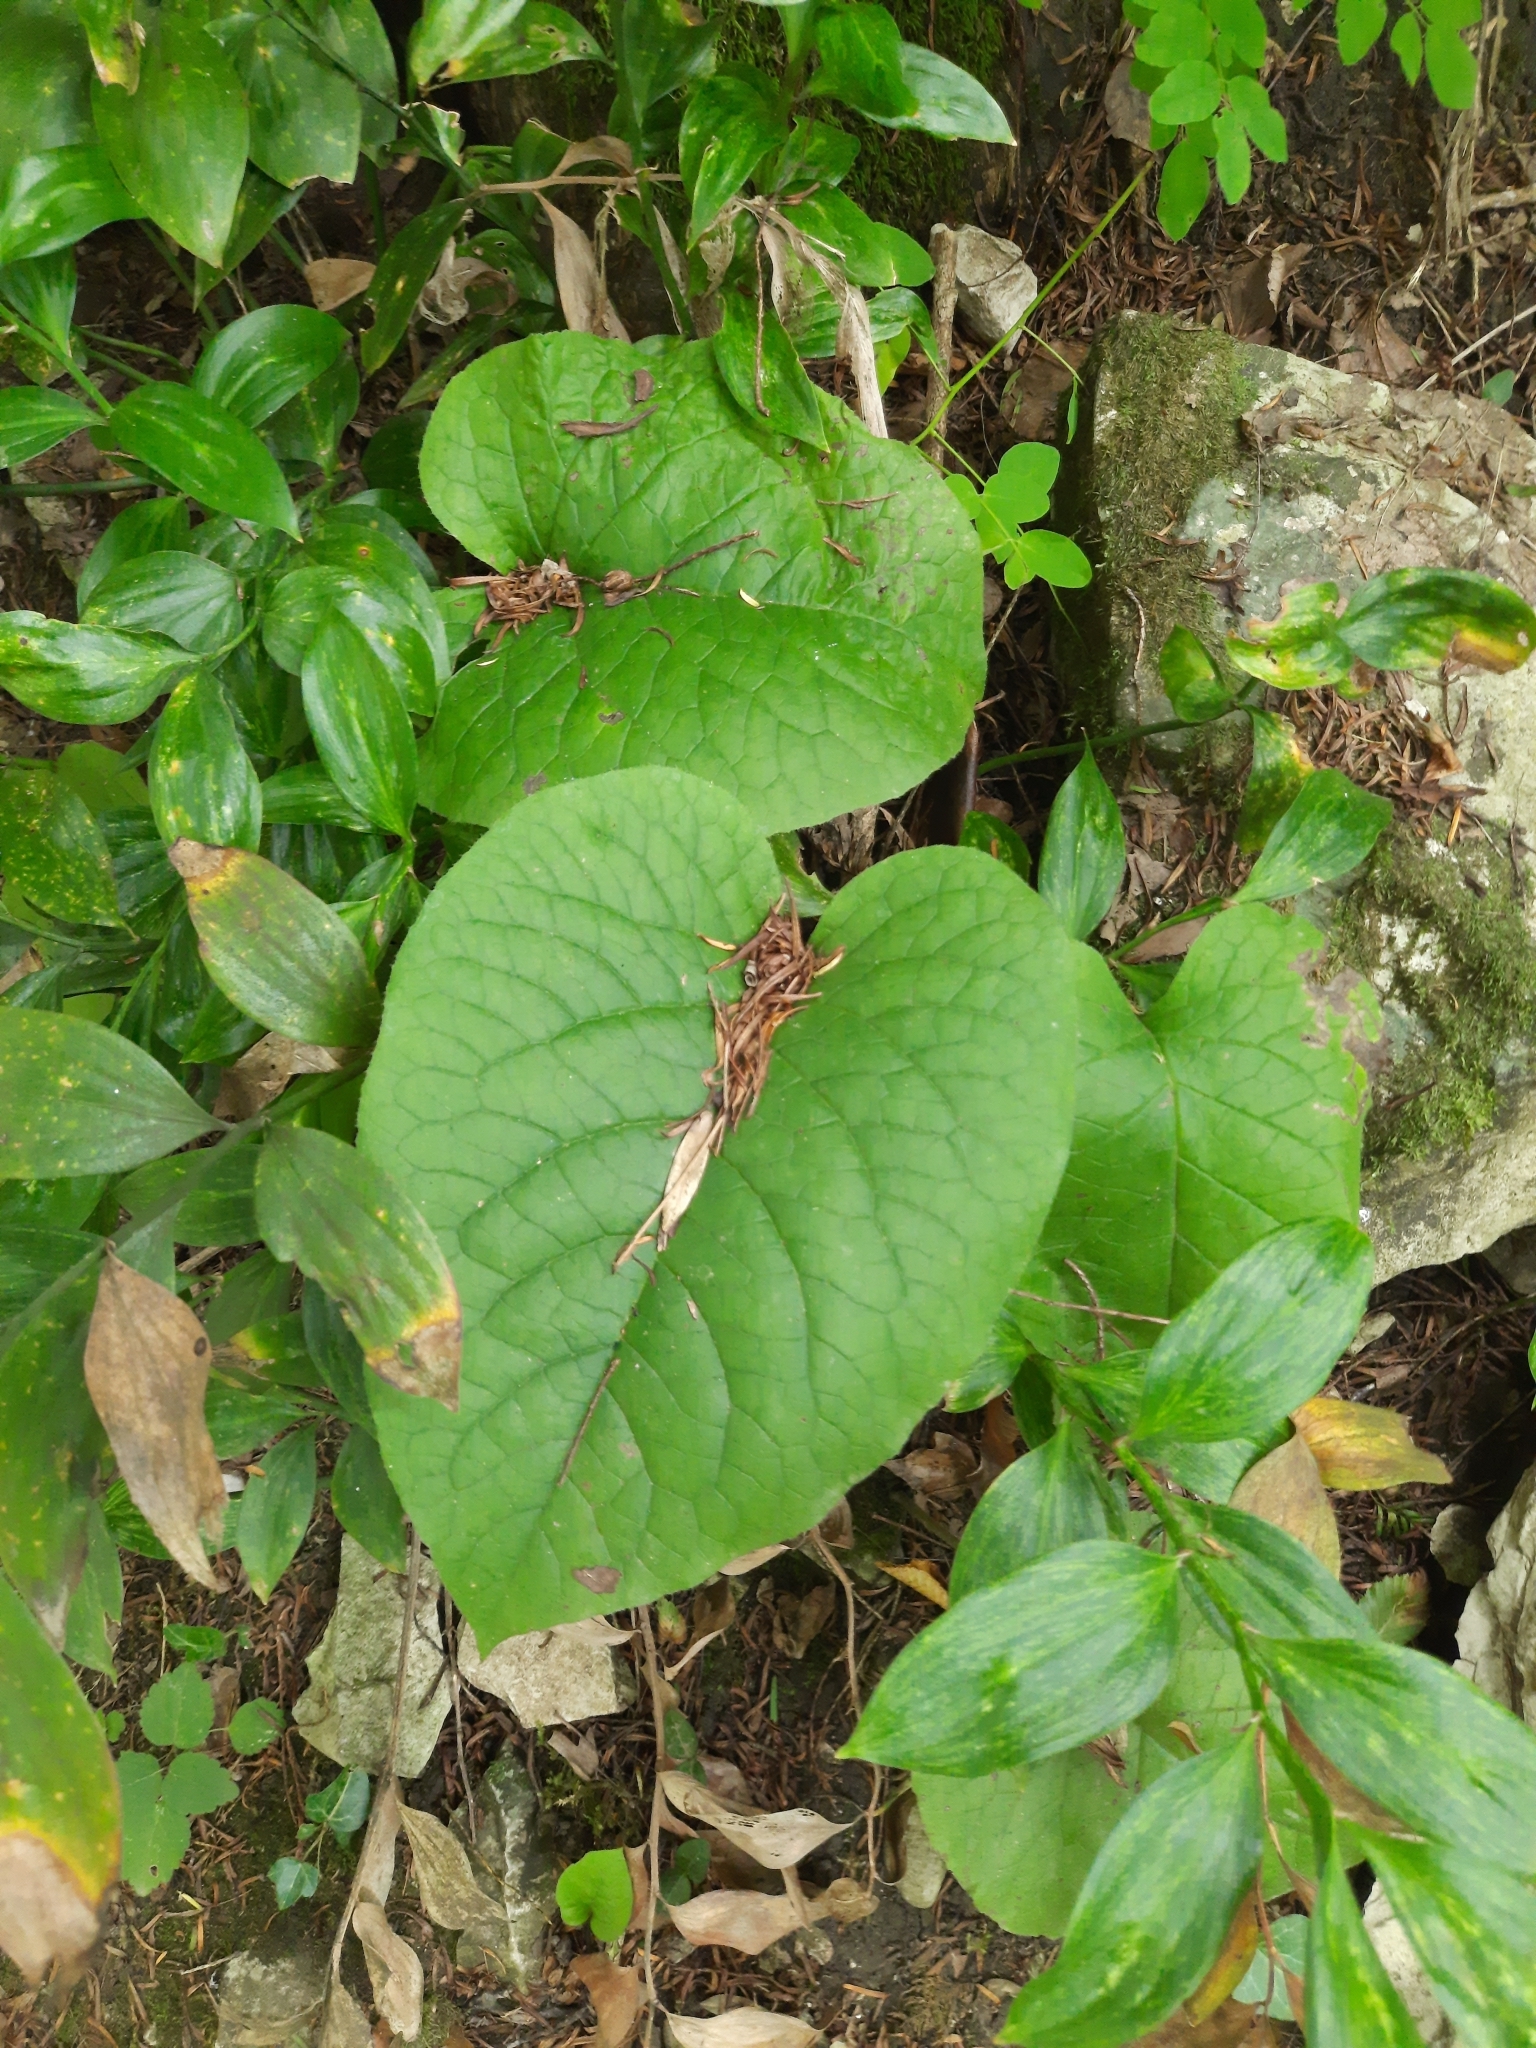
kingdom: Plantae
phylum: Tracheophyta
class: Magnoliopsida
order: Boraginales
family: Boraginaceae
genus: Trachystemon
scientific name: Trachystemon orientale
